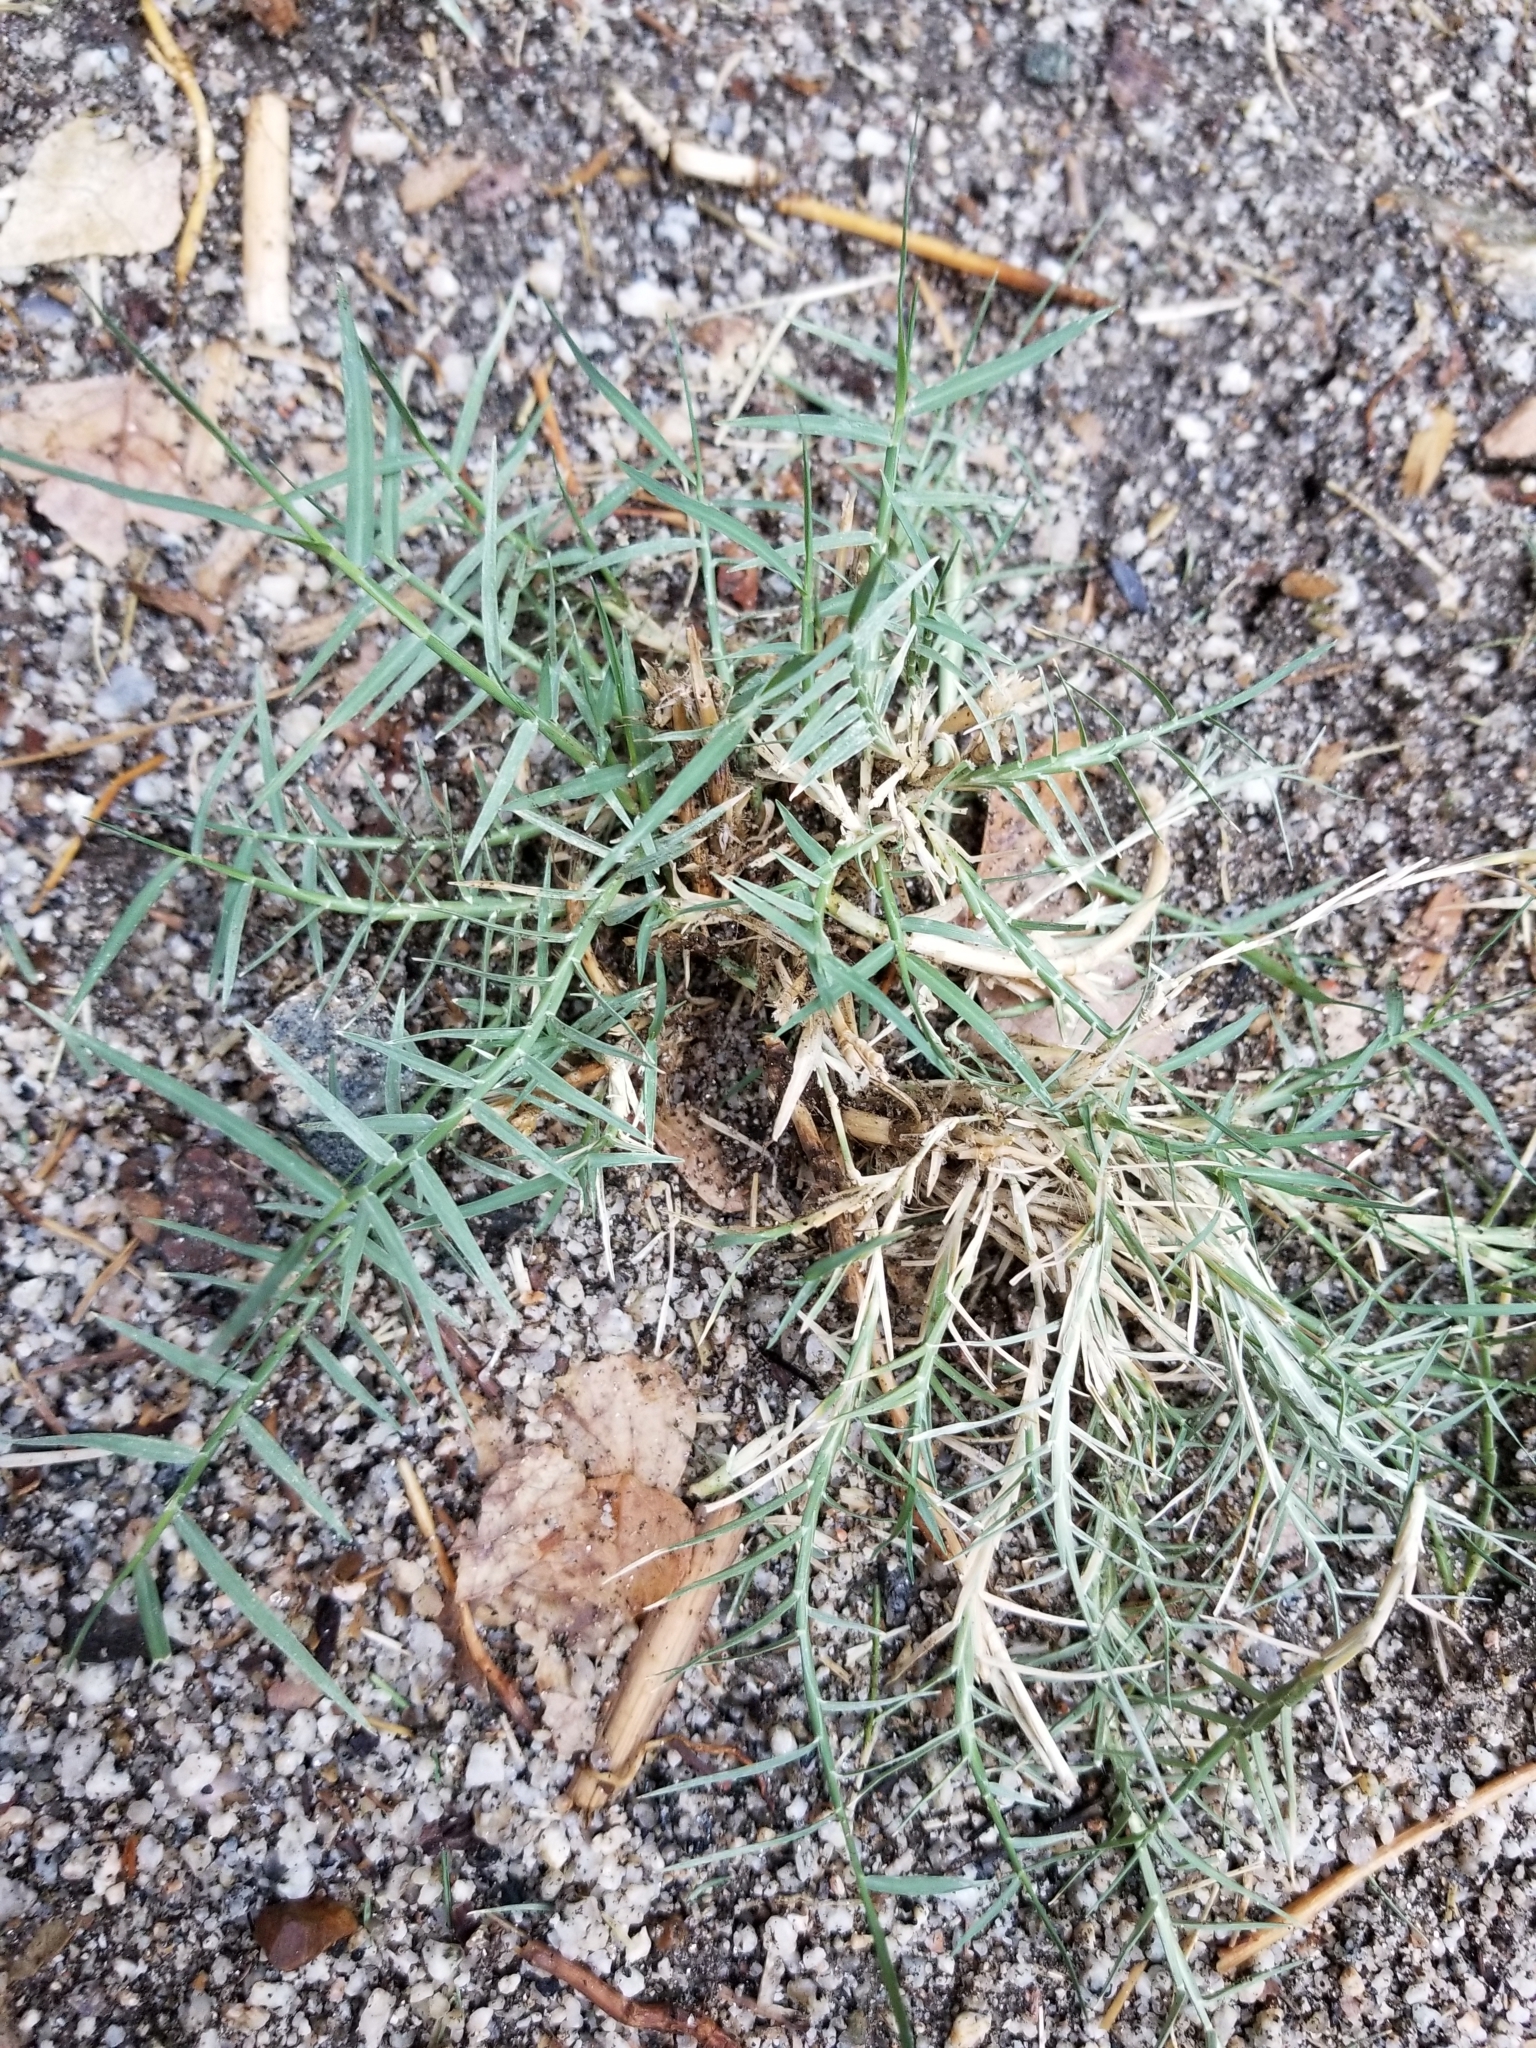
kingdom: Plantae
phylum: Tracheophyta
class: Liliopsida
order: Poales
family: Poaceae
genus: Cynodon
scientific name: Cynodon dactylon
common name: Bermuda grass
